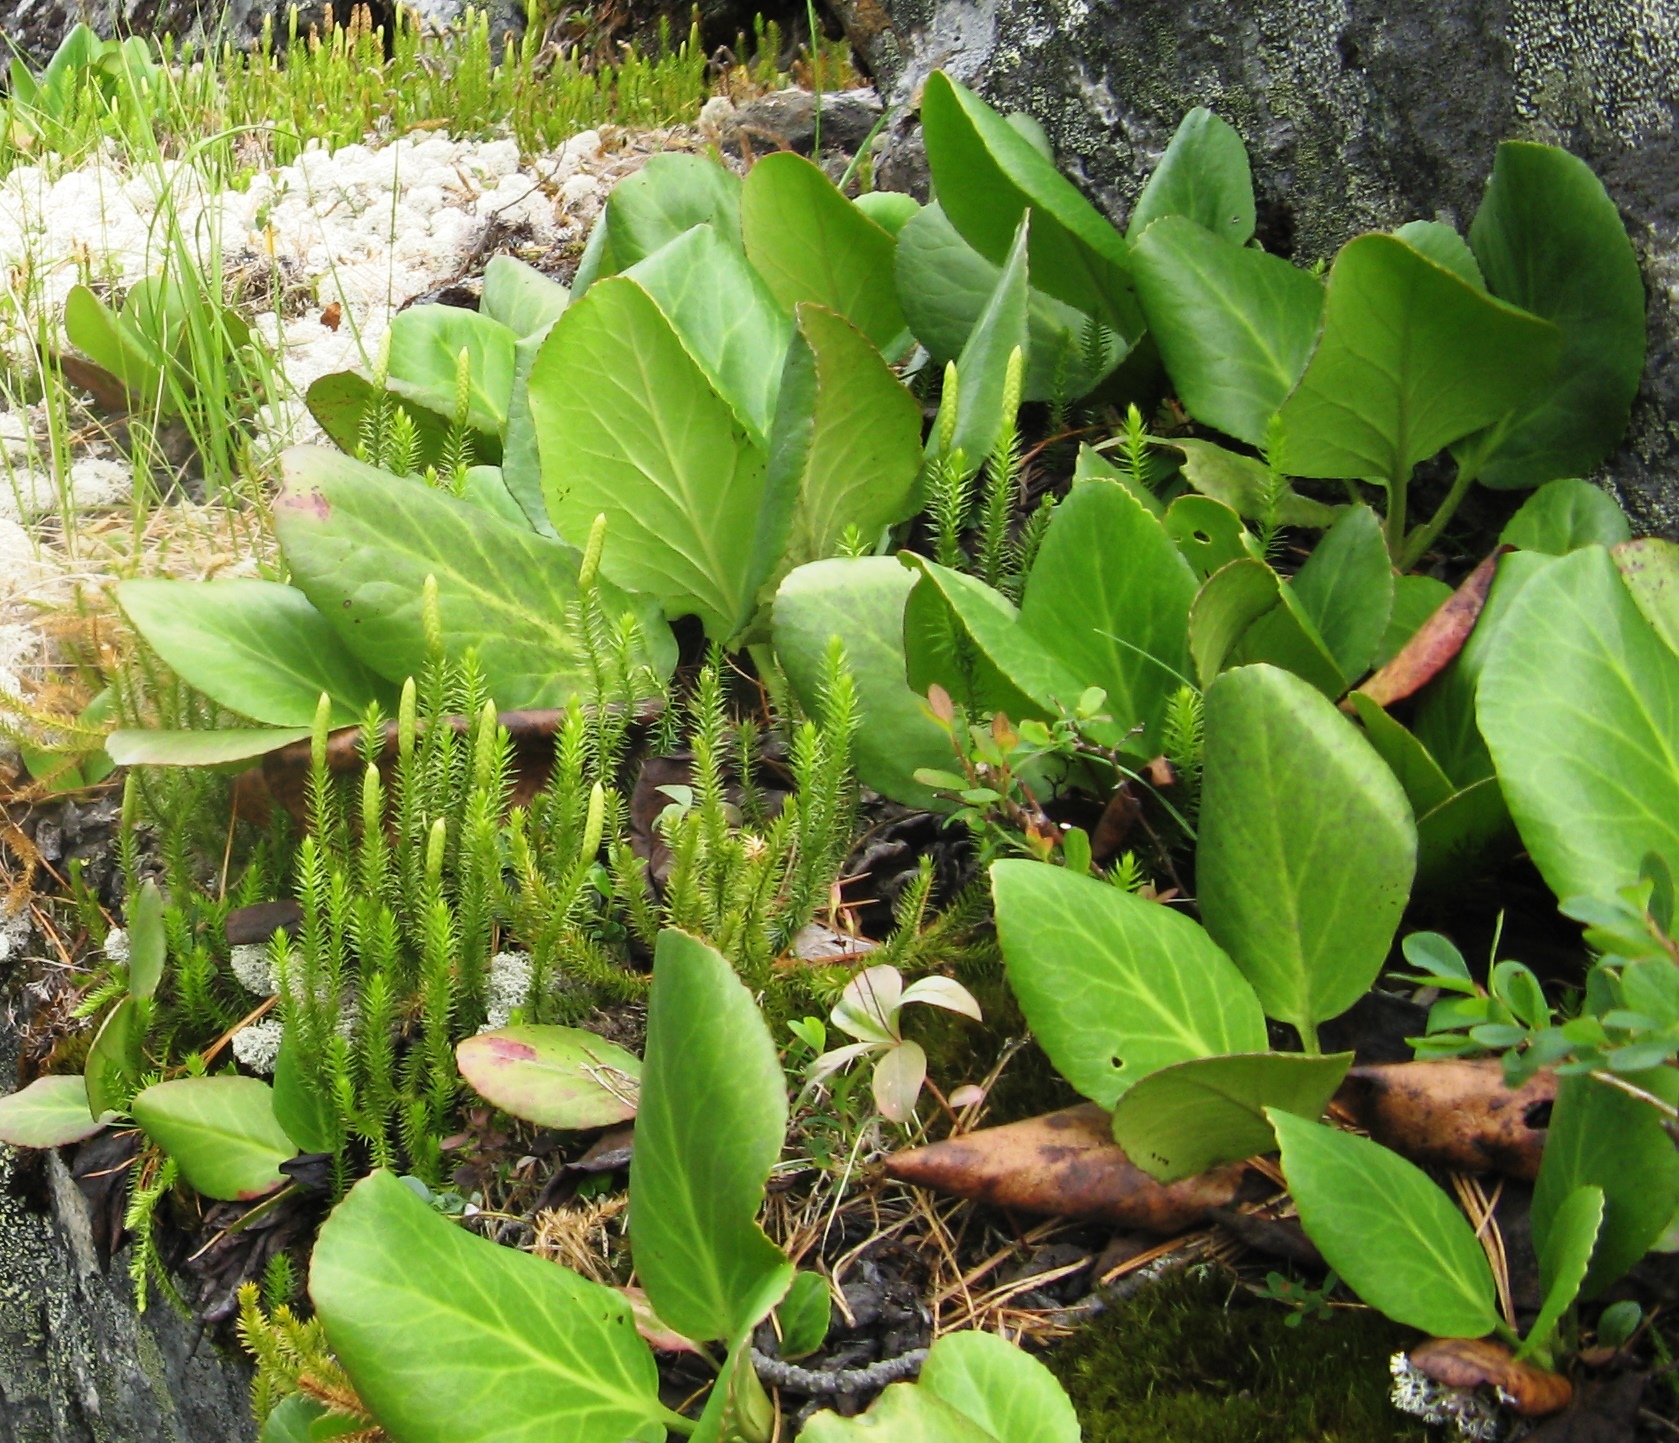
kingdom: Plantae
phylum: Tracheophyta
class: Magnoliopsida
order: Saxifragales
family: Saxifragaceae
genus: Bergenia
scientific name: Bergenia crassifolia
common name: Elephant-ears
